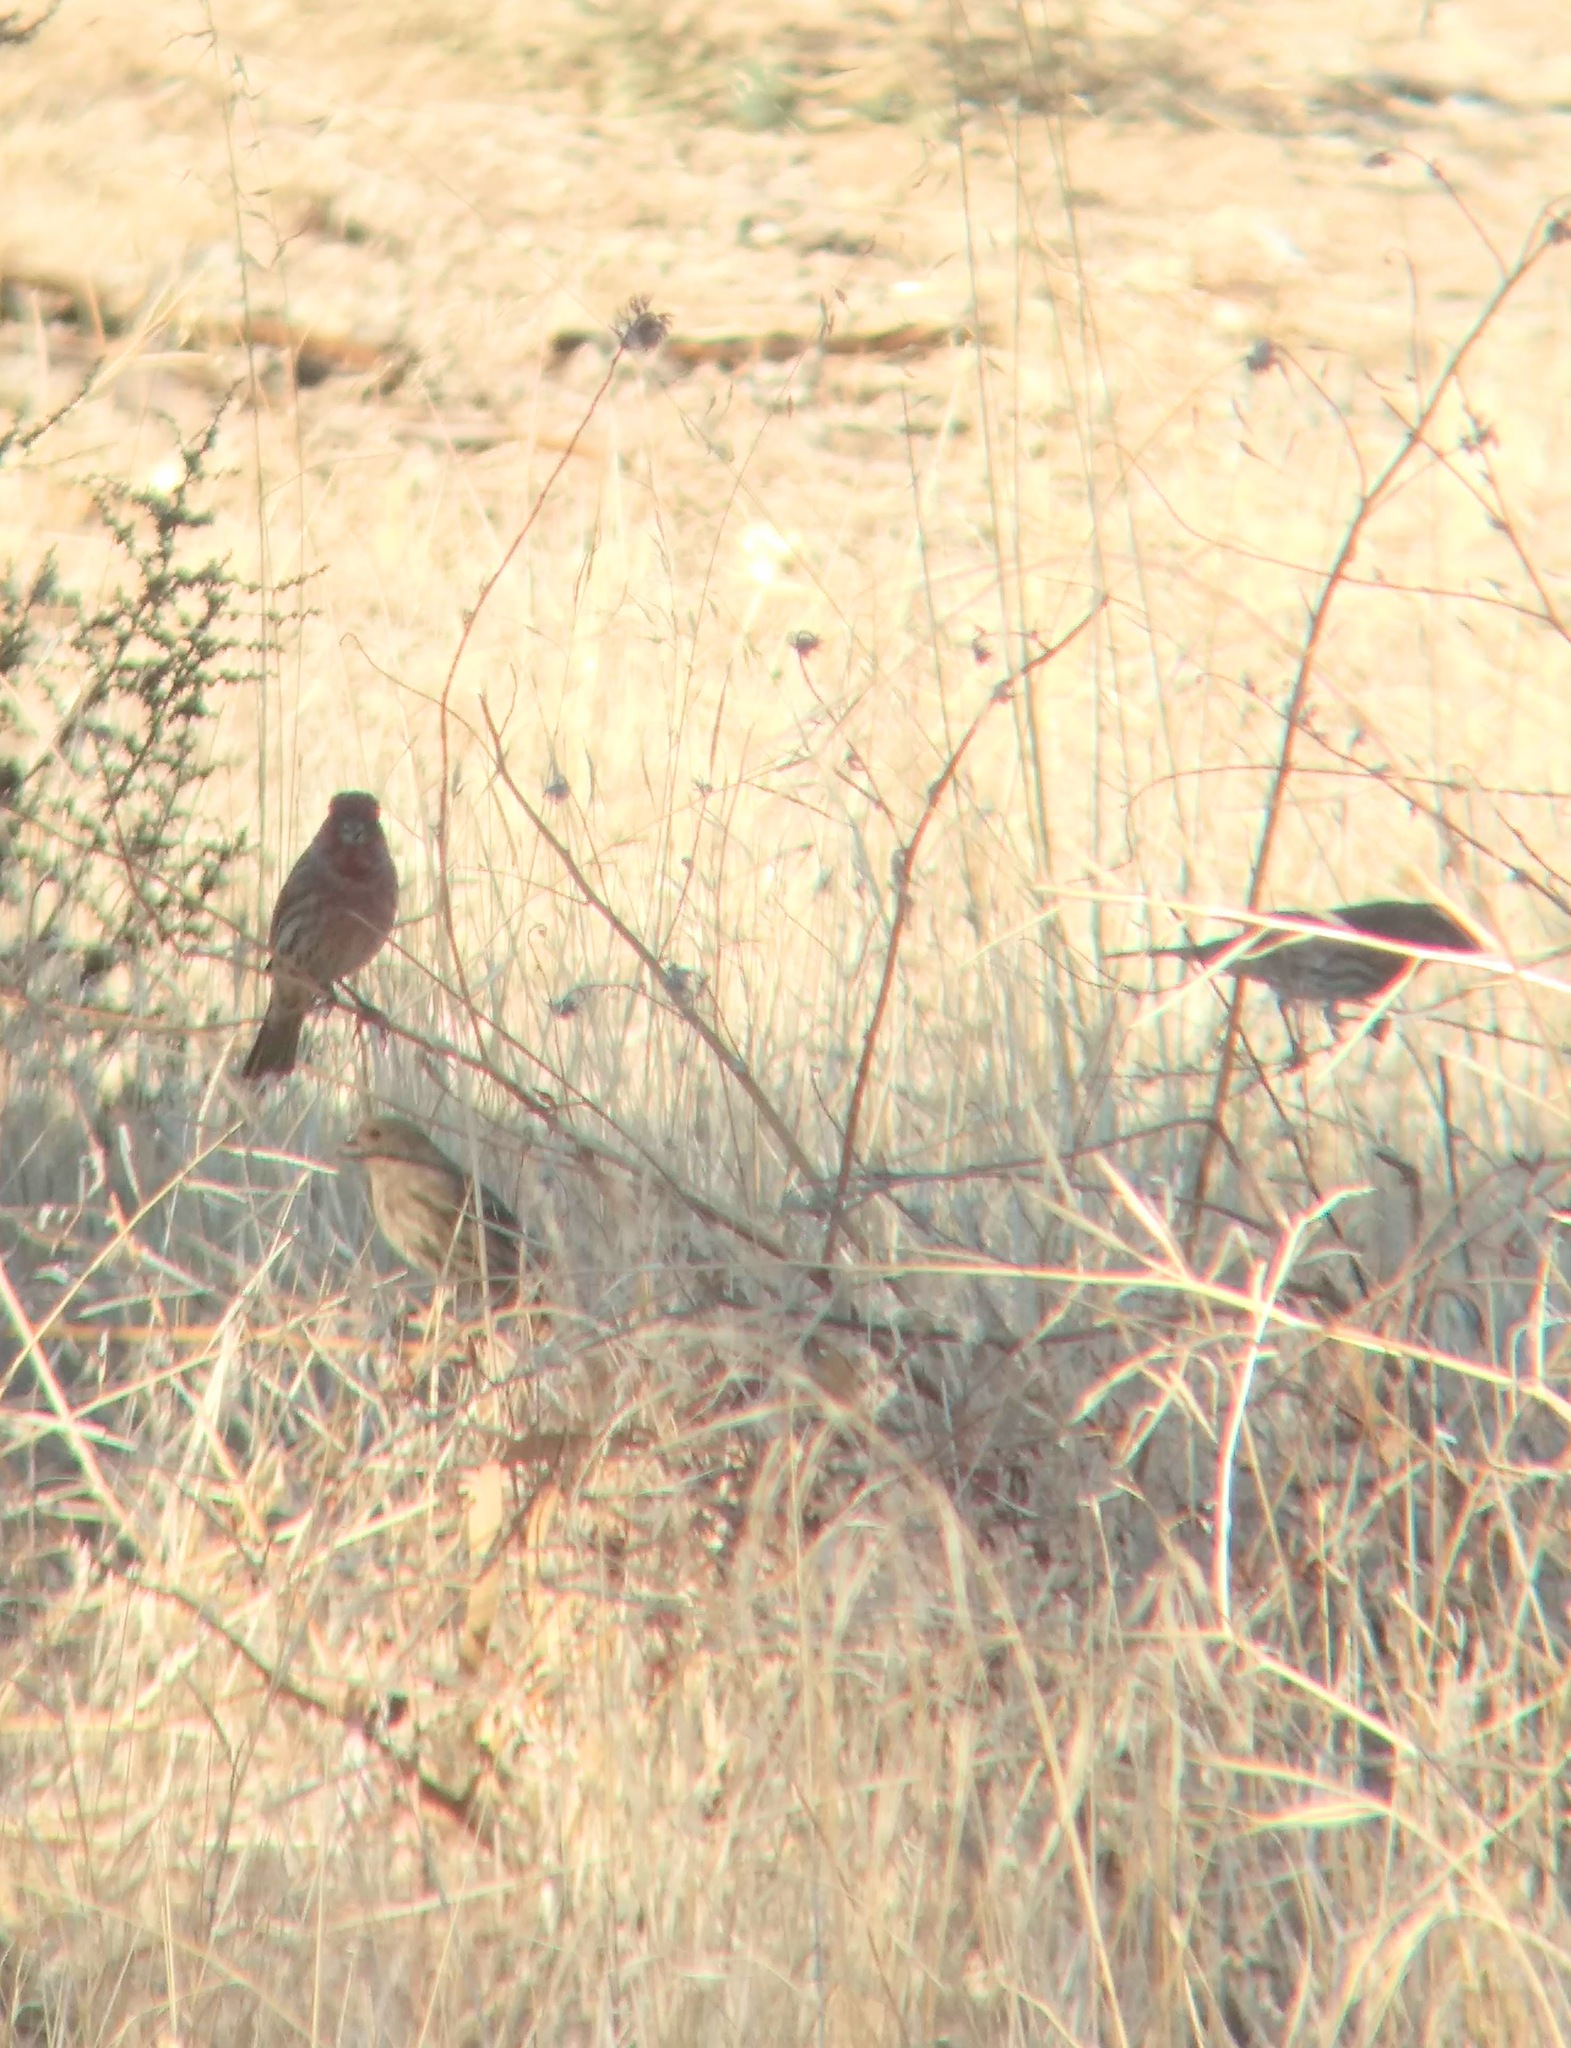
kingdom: Animalia
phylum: Chordata
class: Aves
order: Passeriformes
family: Fringillidae
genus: Haemorhous
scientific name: Haemorhous mexicanus
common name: House finch
